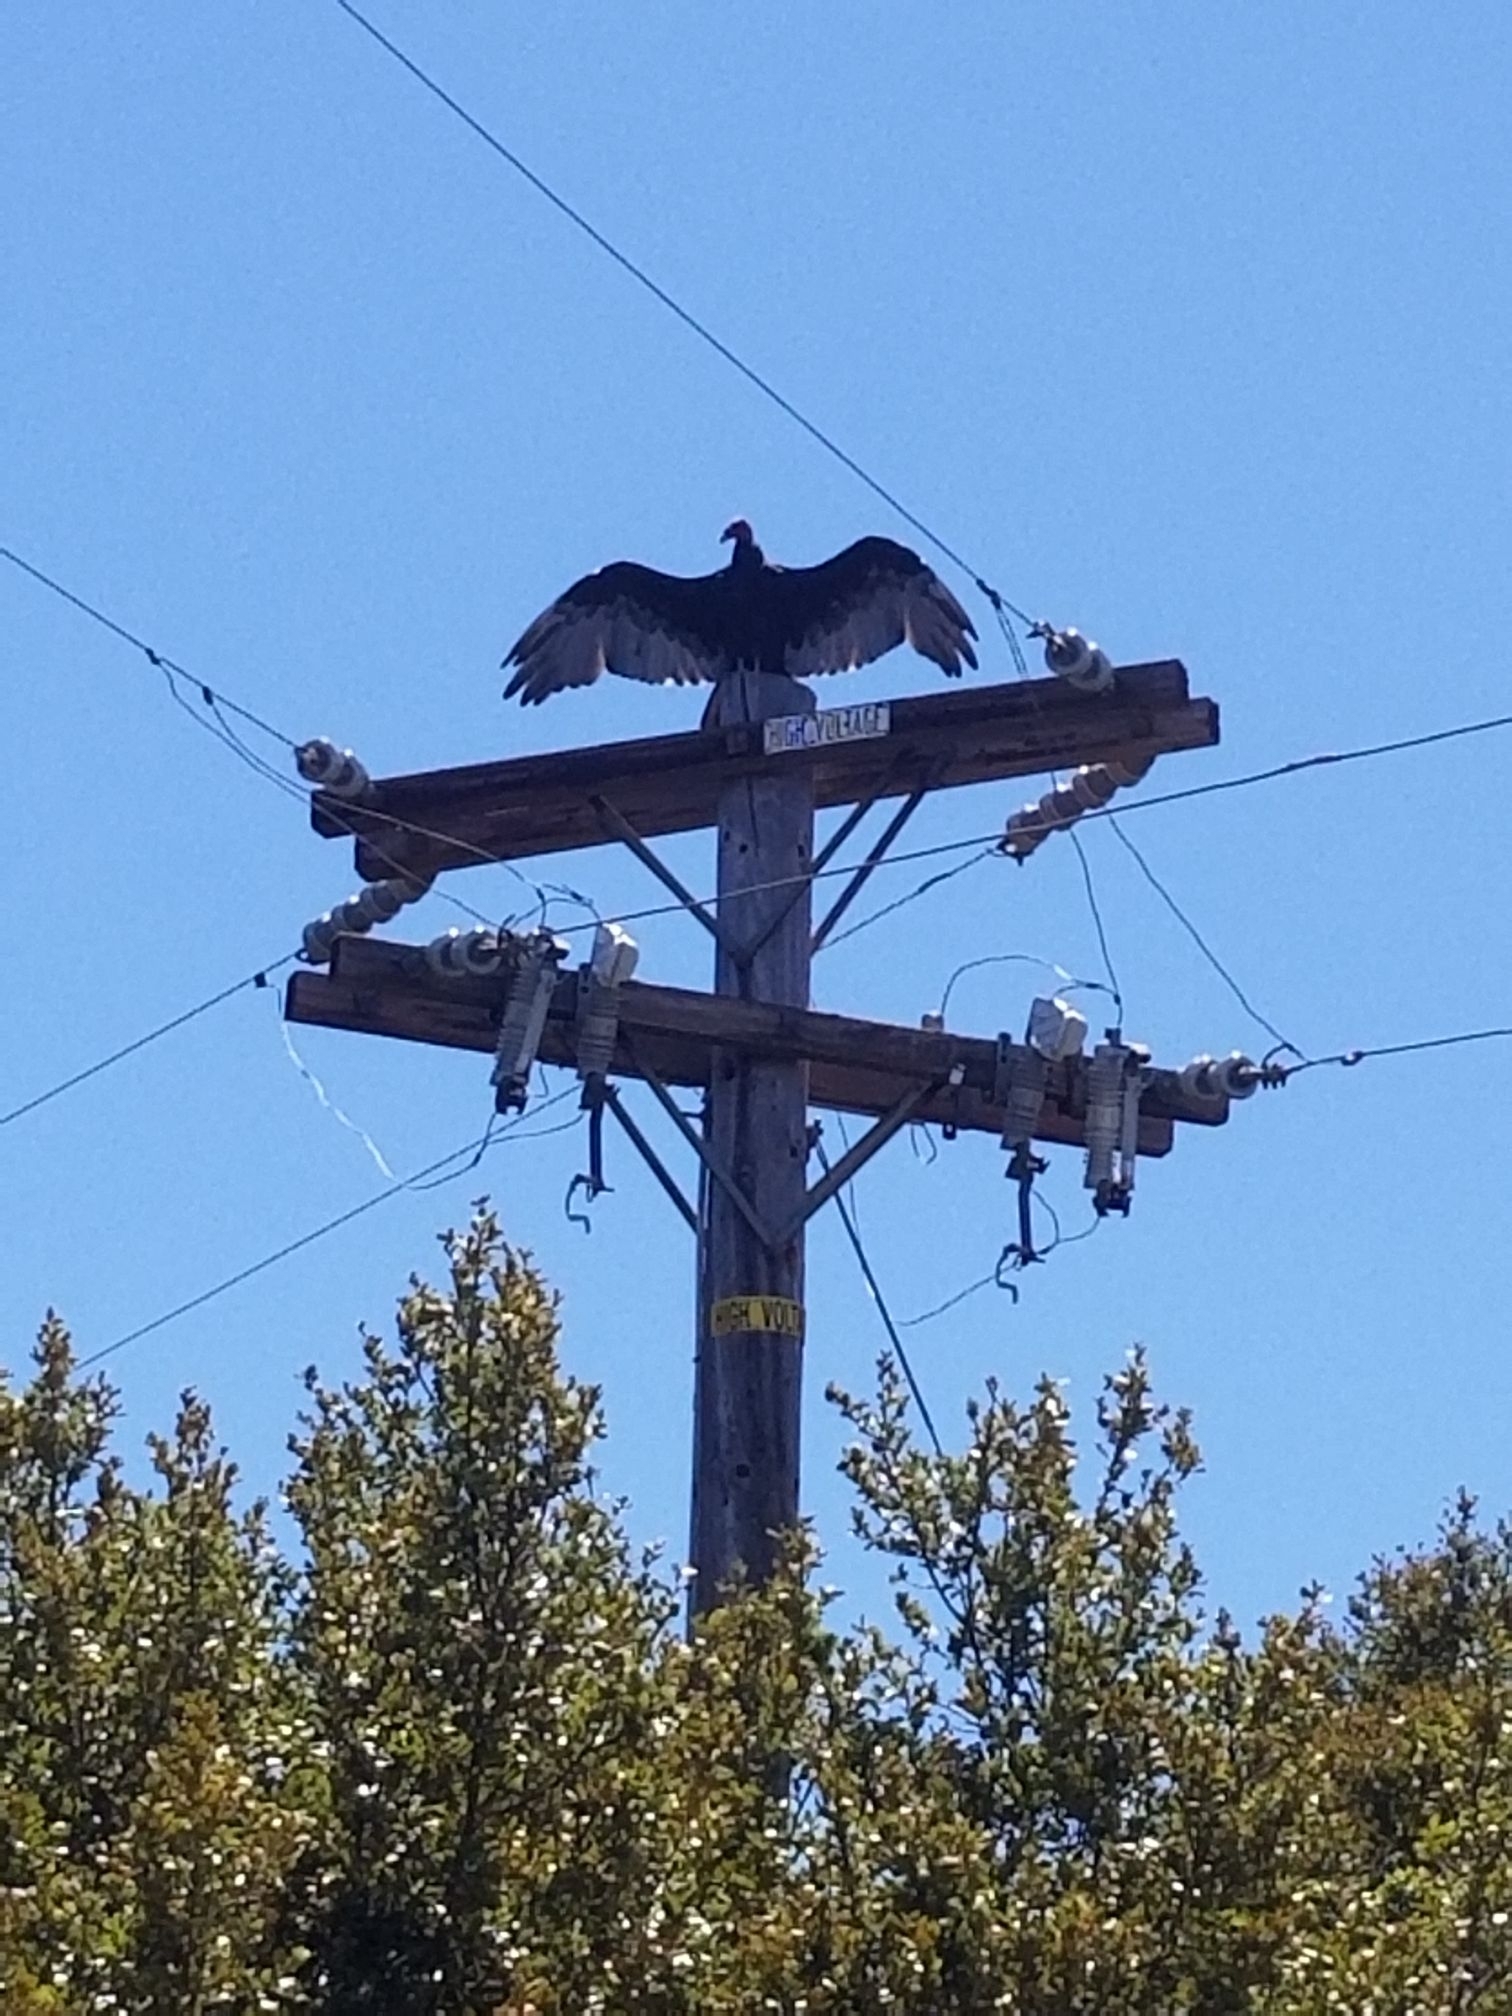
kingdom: Animalia
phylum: Chordata
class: Aves
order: Accipitriformes
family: Cathartidae
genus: Cathartes
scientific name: Cathartes aura
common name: Turkey vulture
